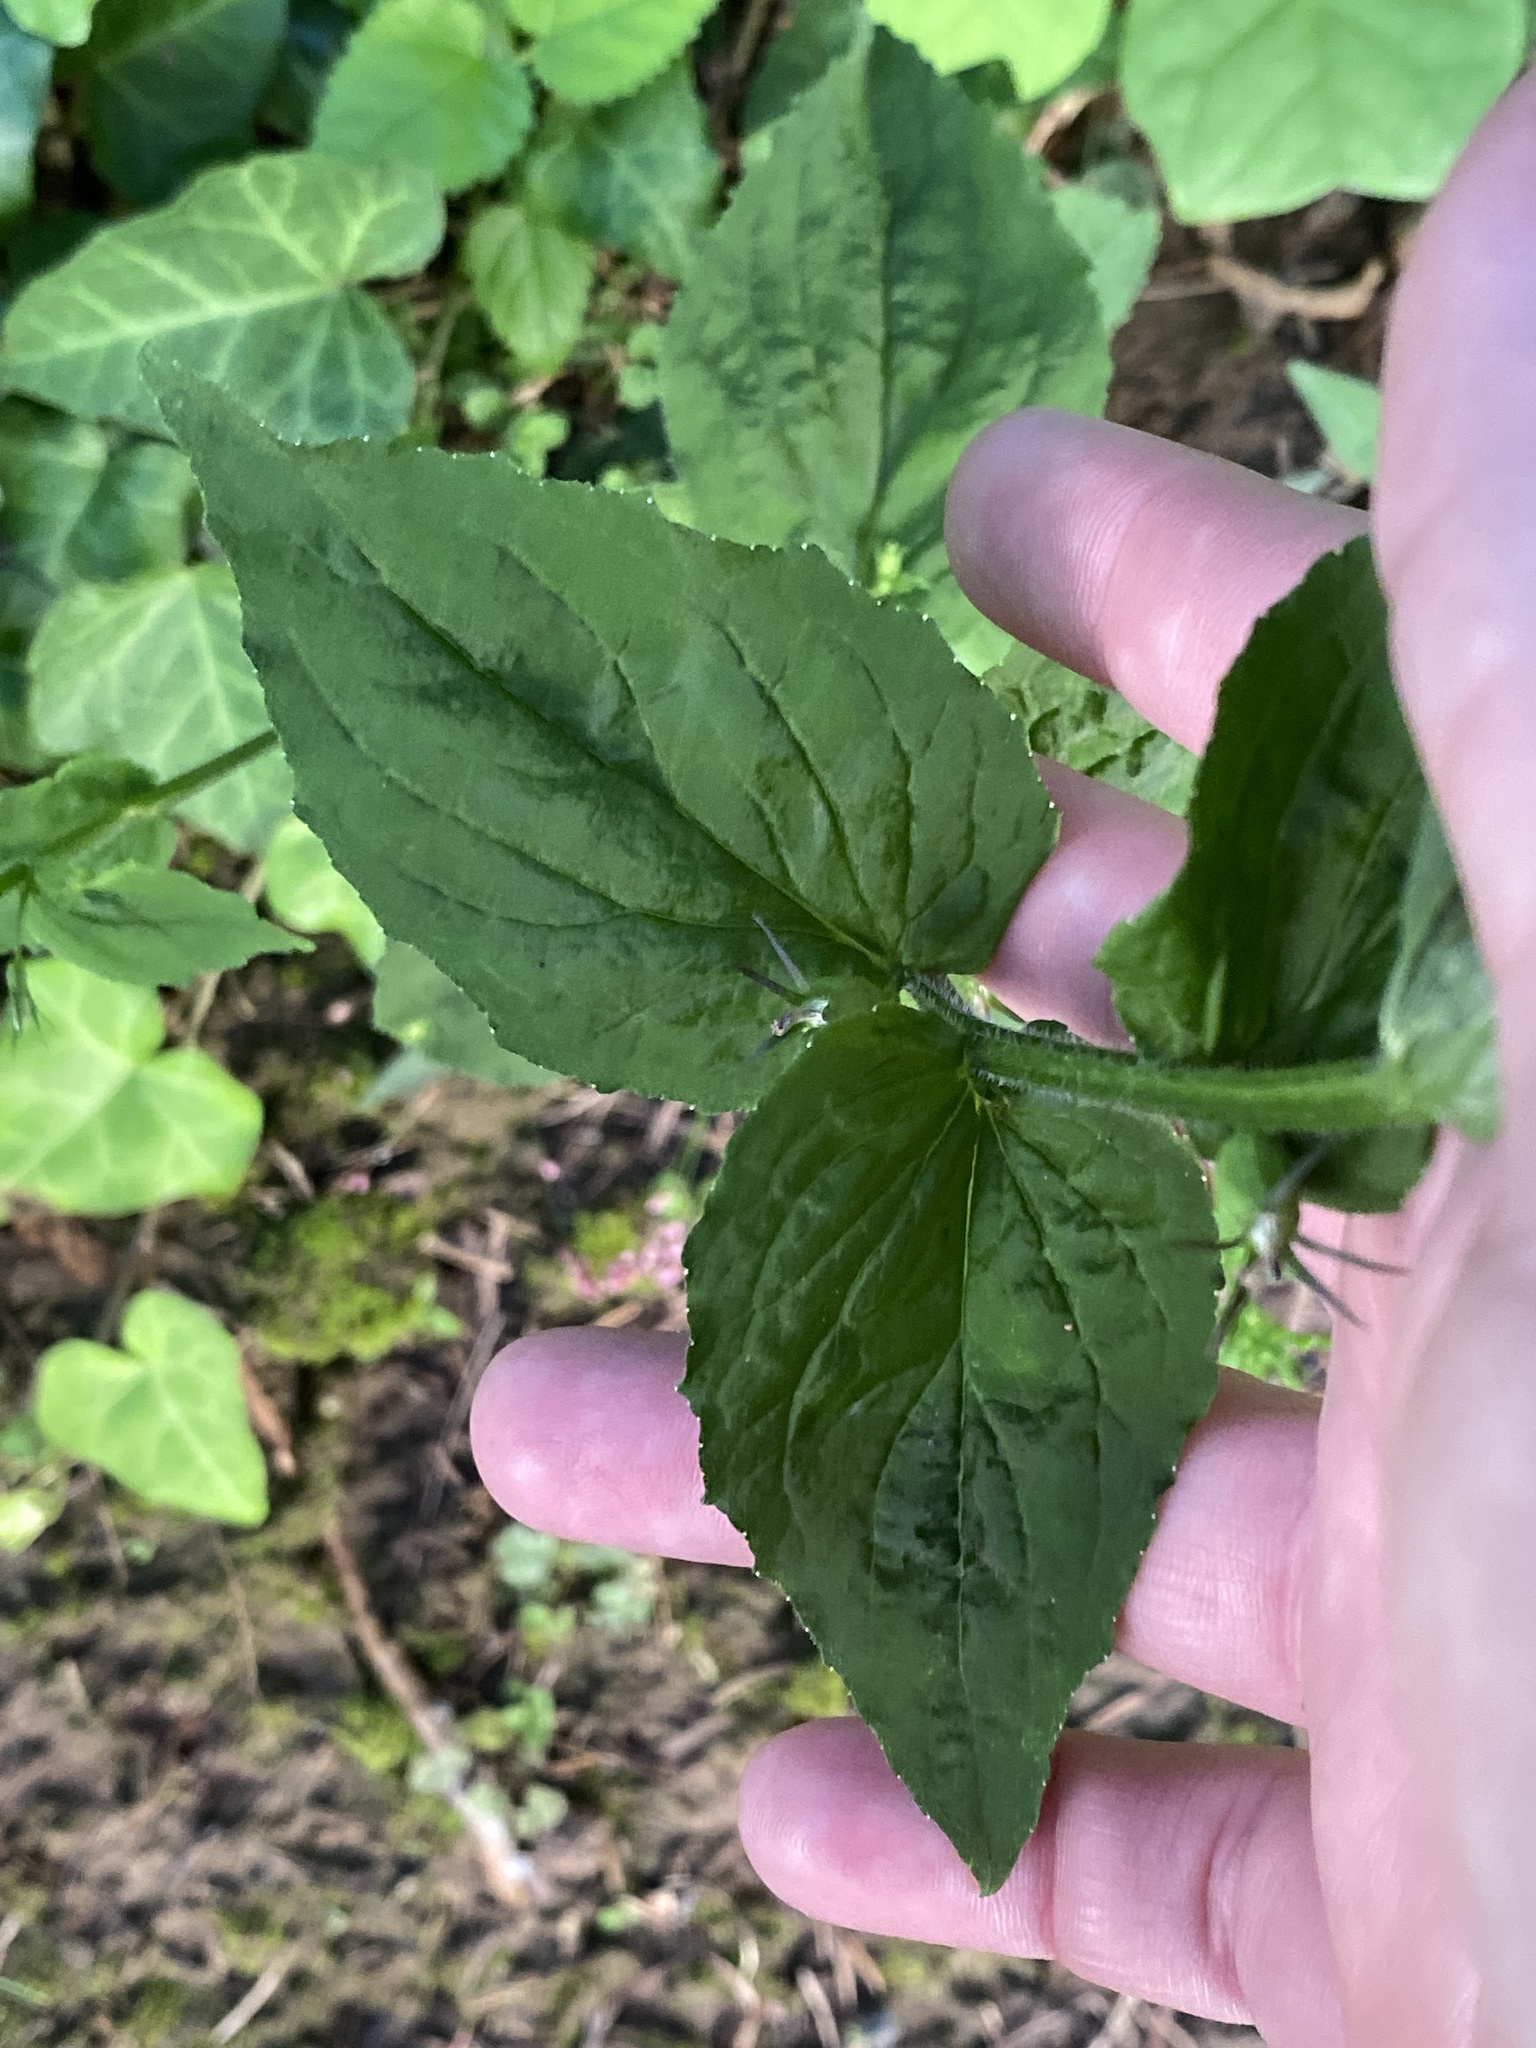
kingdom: Plantae
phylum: Tracheophyta
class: Magnoliopsida
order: Asterales
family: Campanulaceae
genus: Lobelia
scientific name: Lobelia inflata
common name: Indian tobacco
